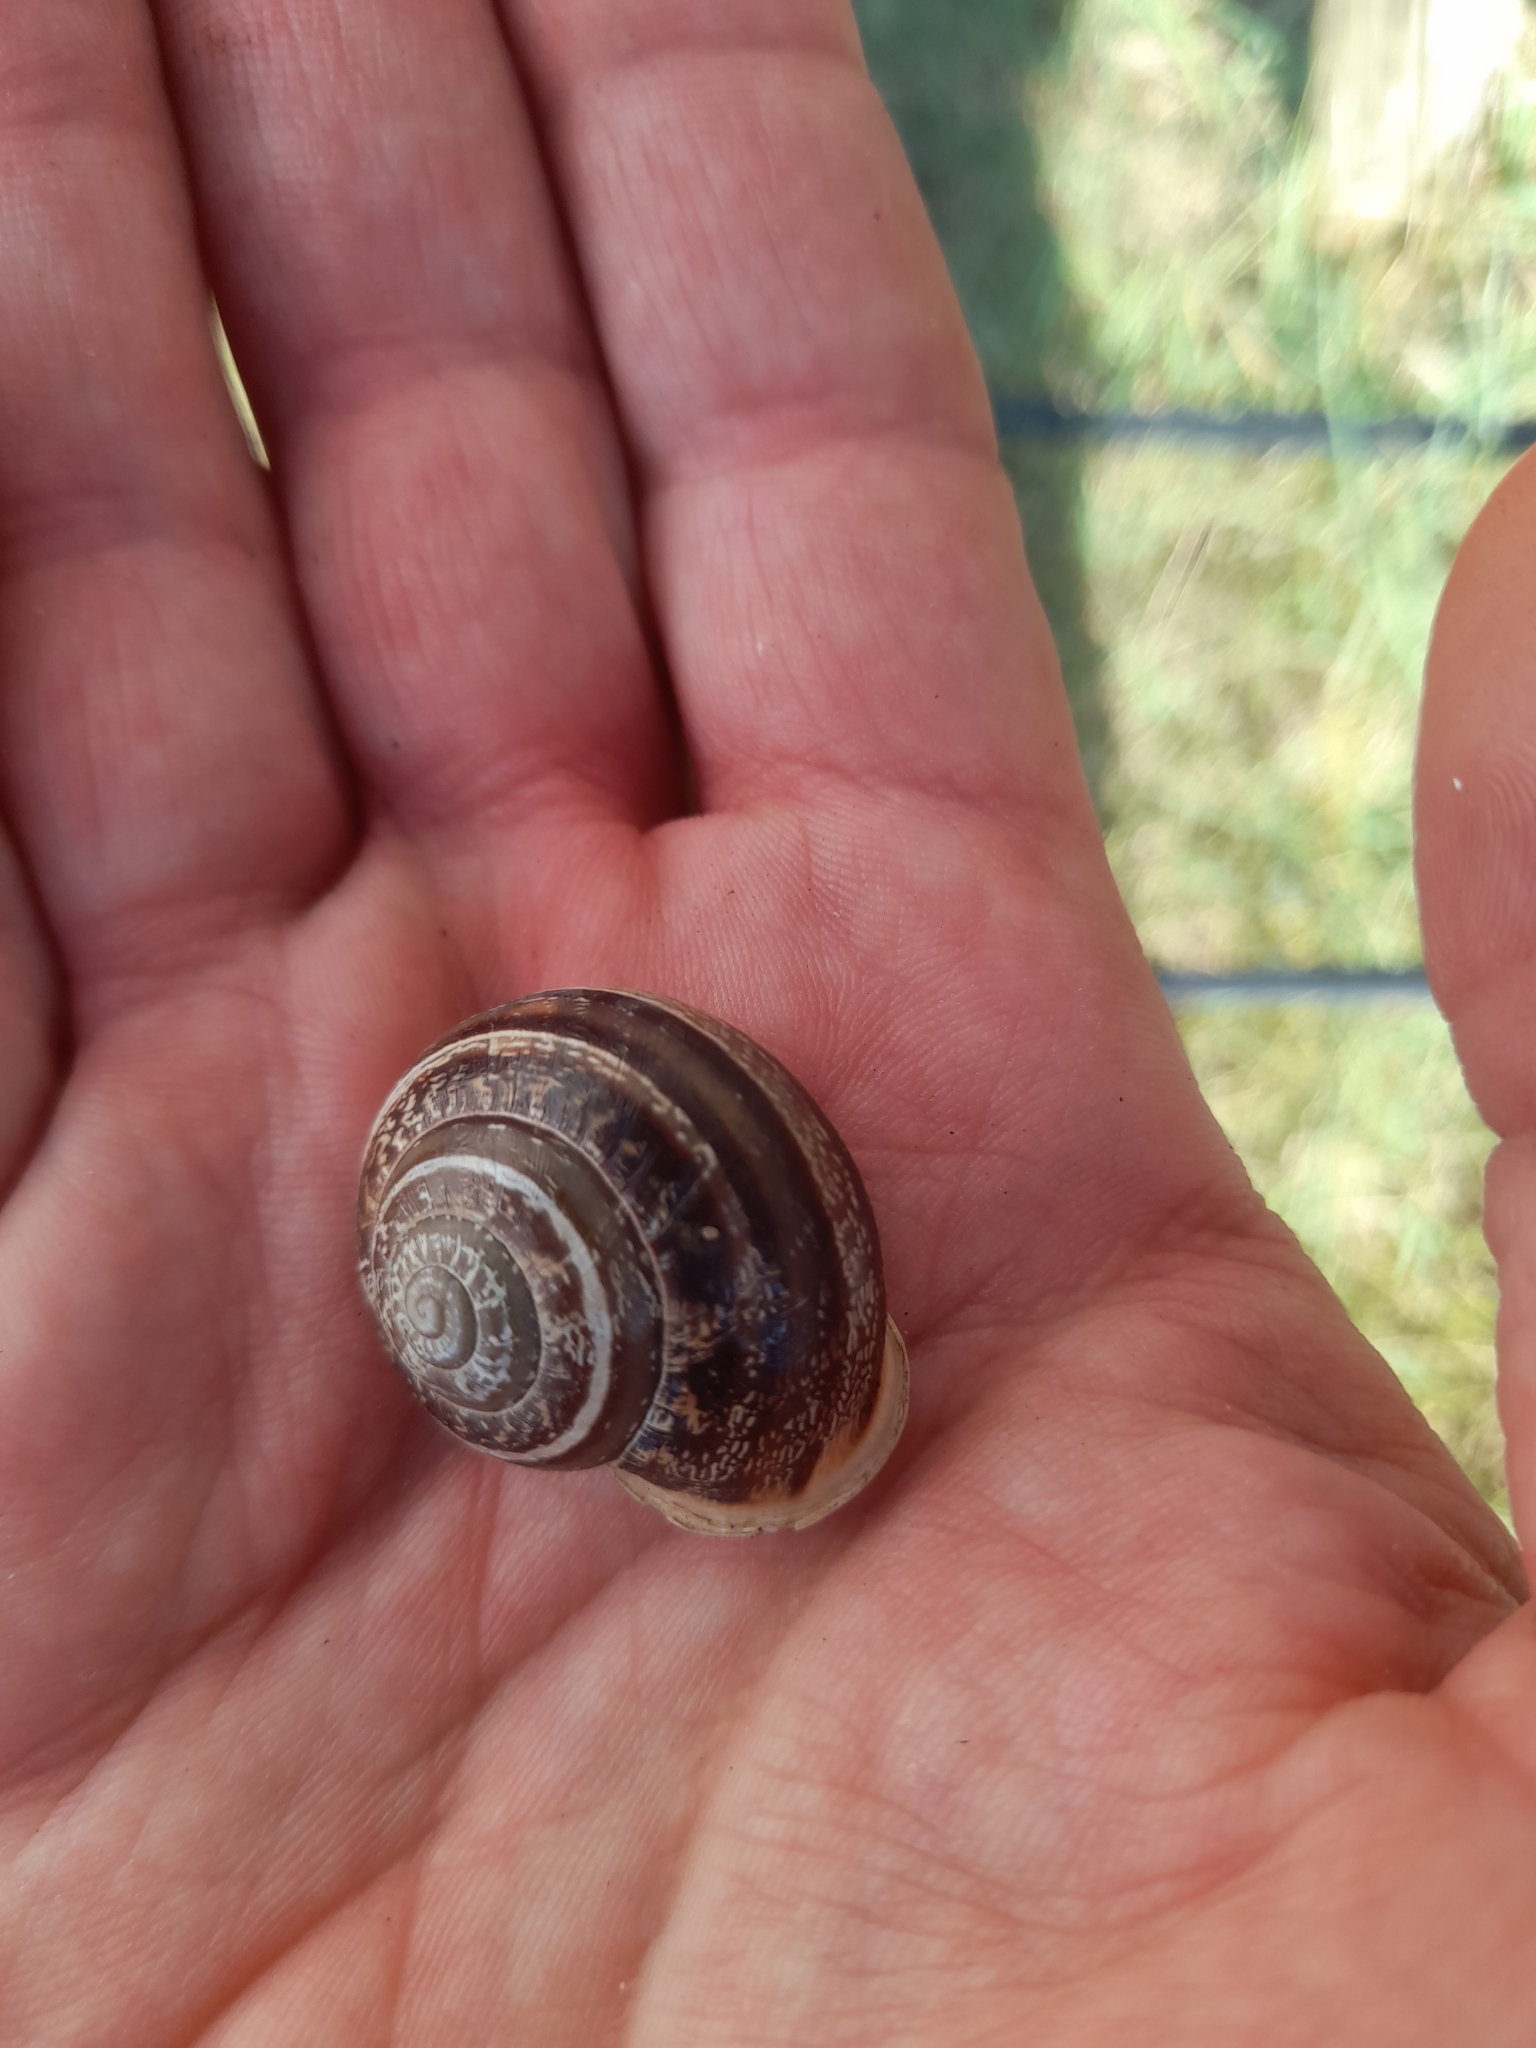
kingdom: Animalia
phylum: Mollusca
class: Gastropoda
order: Stylommatophora
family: Helicidae
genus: Eobania
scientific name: Eobania vermiculata
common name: Chocolateband snail
